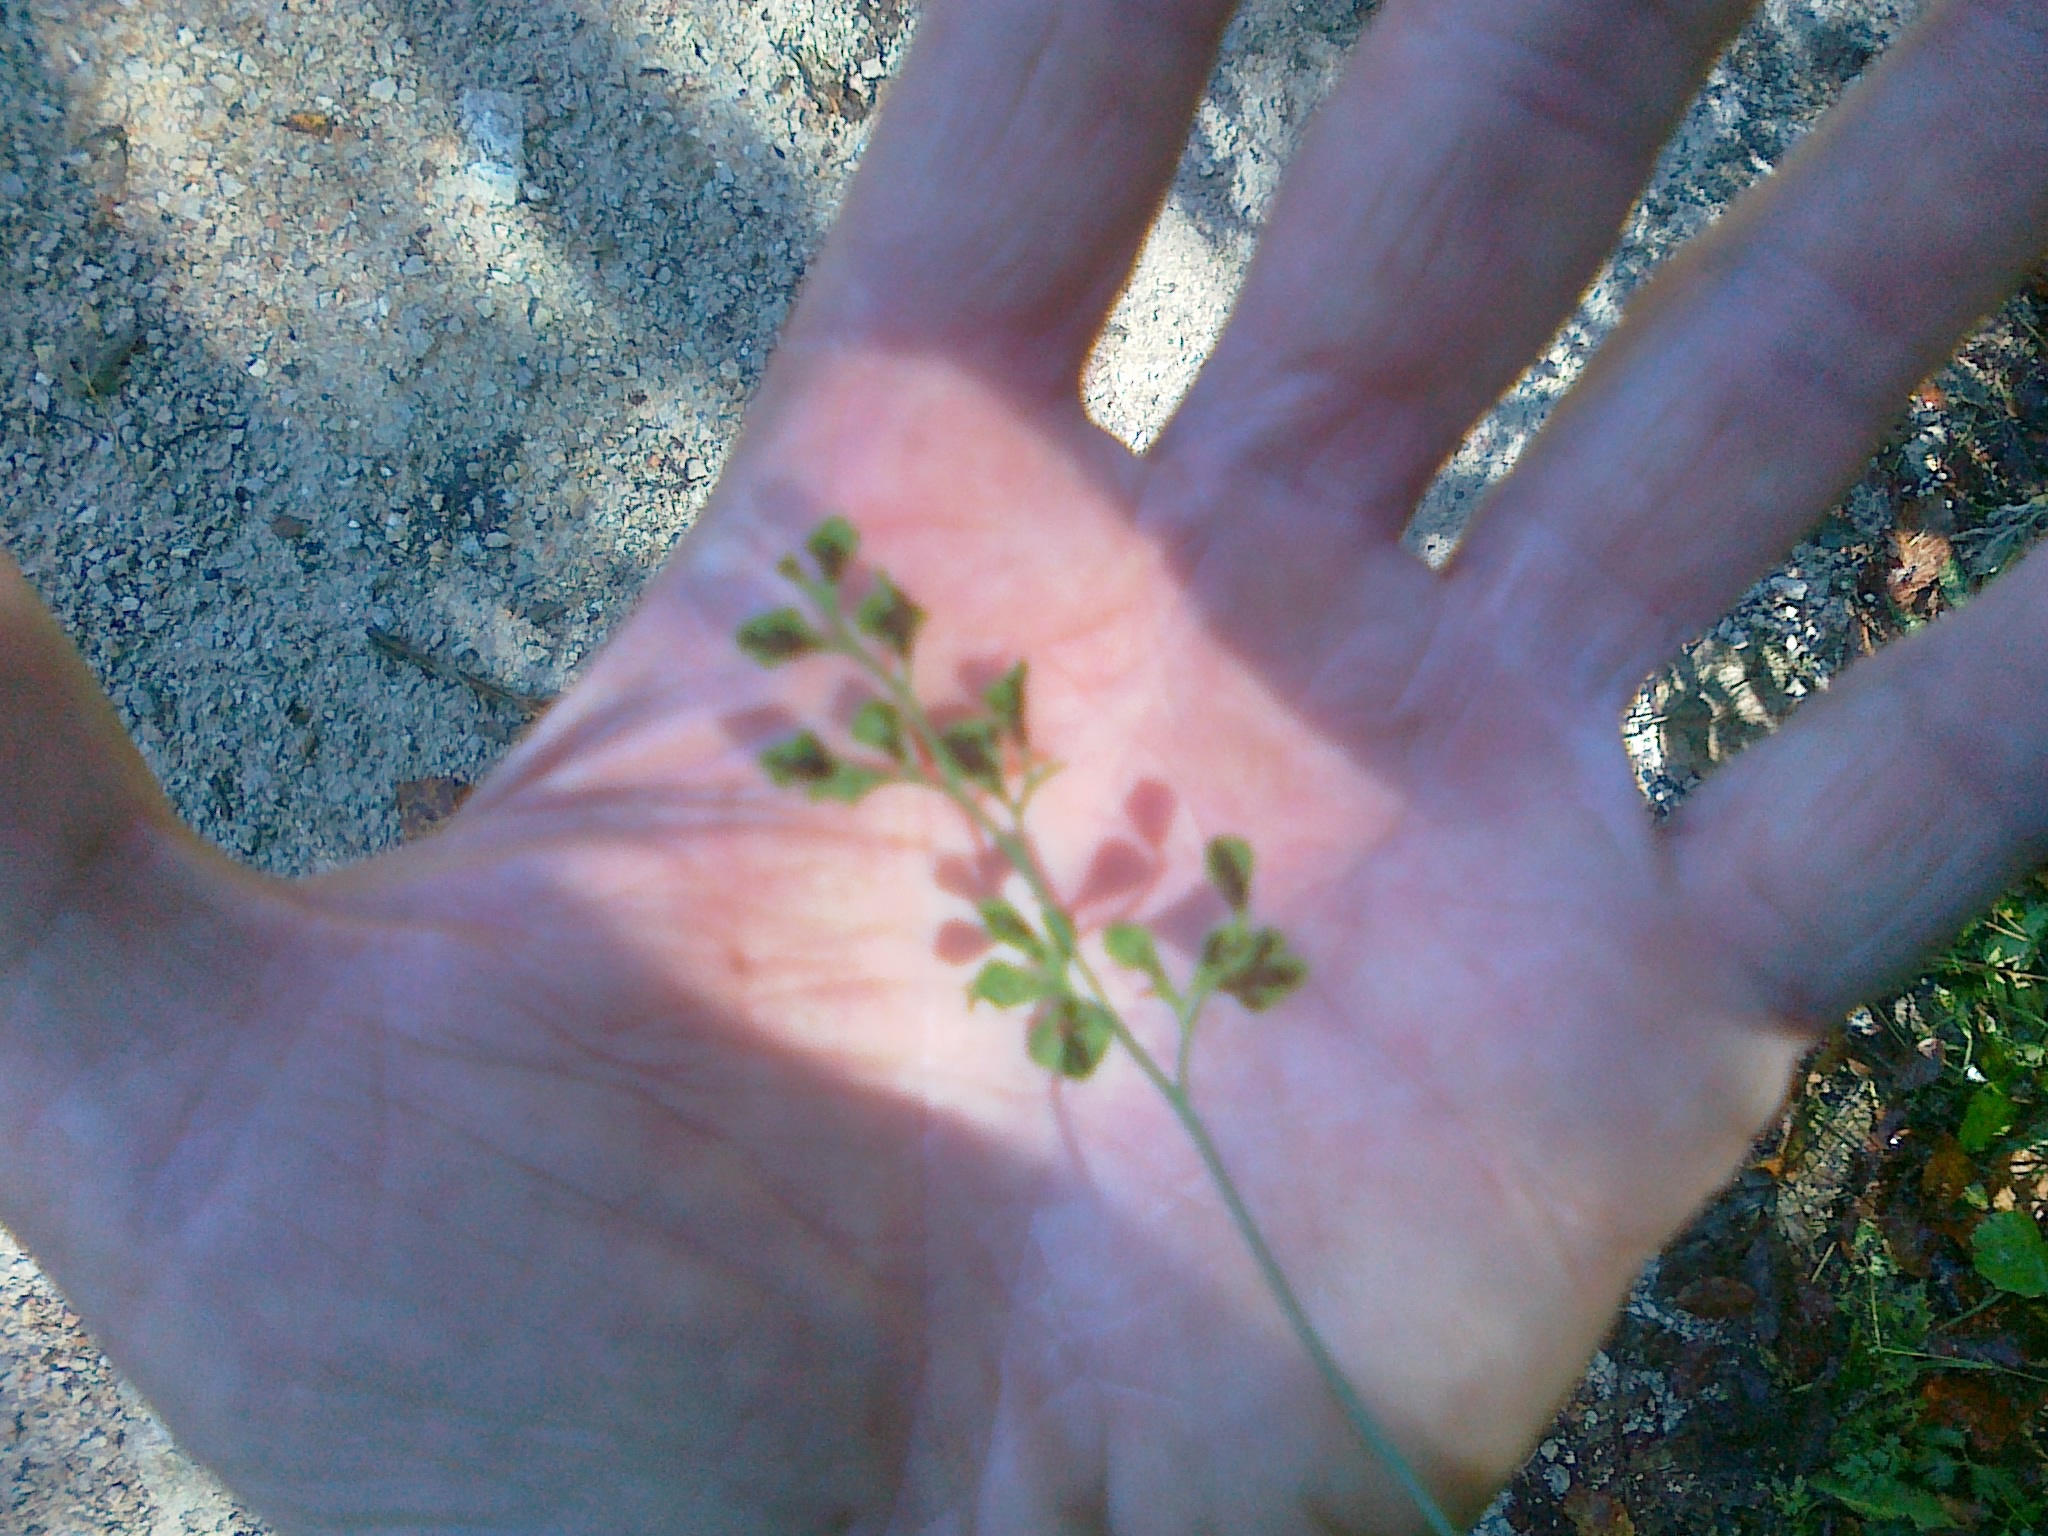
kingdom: Plantae
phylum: Tracheophyta
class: Polypodiopsida
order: Polypodiales
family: Aspleniaceae
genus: Asplenium
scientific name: Asplenium ruta-muraria
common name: Wall-rue
